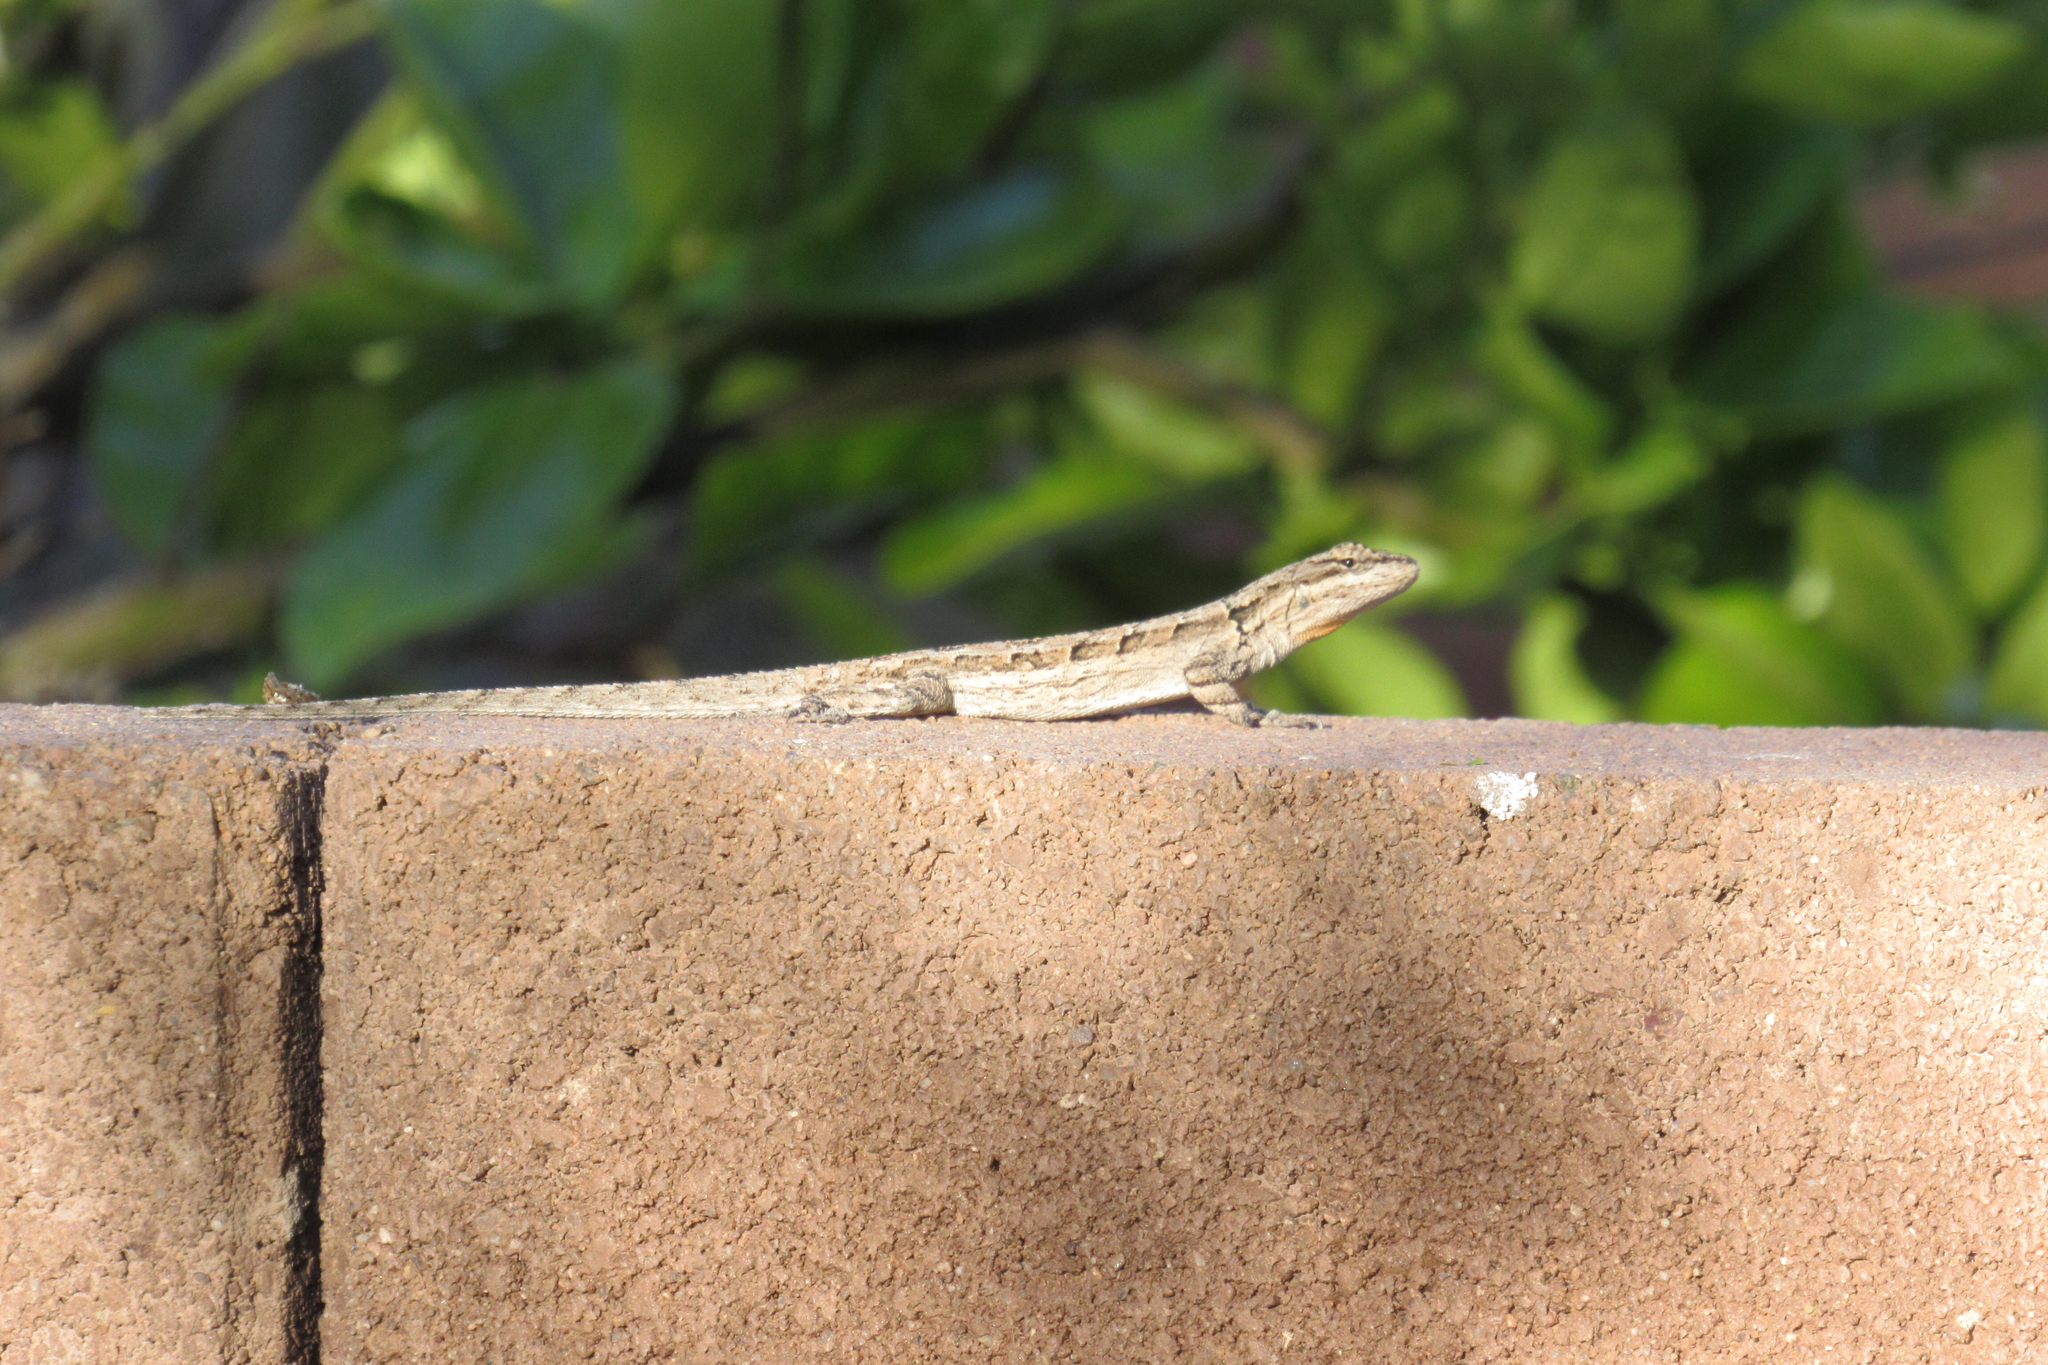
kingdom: Animalia
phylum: Chordata
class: Squamata
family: Phrynosomatidae
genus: Urosaurus
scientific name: Urosaurus ornatus
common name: Ornate tree lizard
